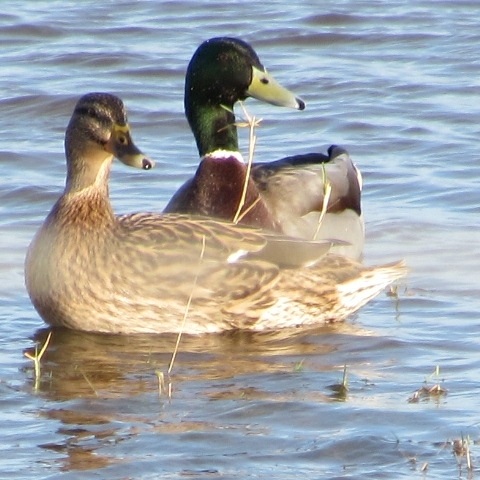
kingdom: Animalia
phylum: Chordata
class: Aves
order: Anseriformes
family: Anatidae
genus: Anas
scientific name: Anas platyrhynchos
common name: Mallard
